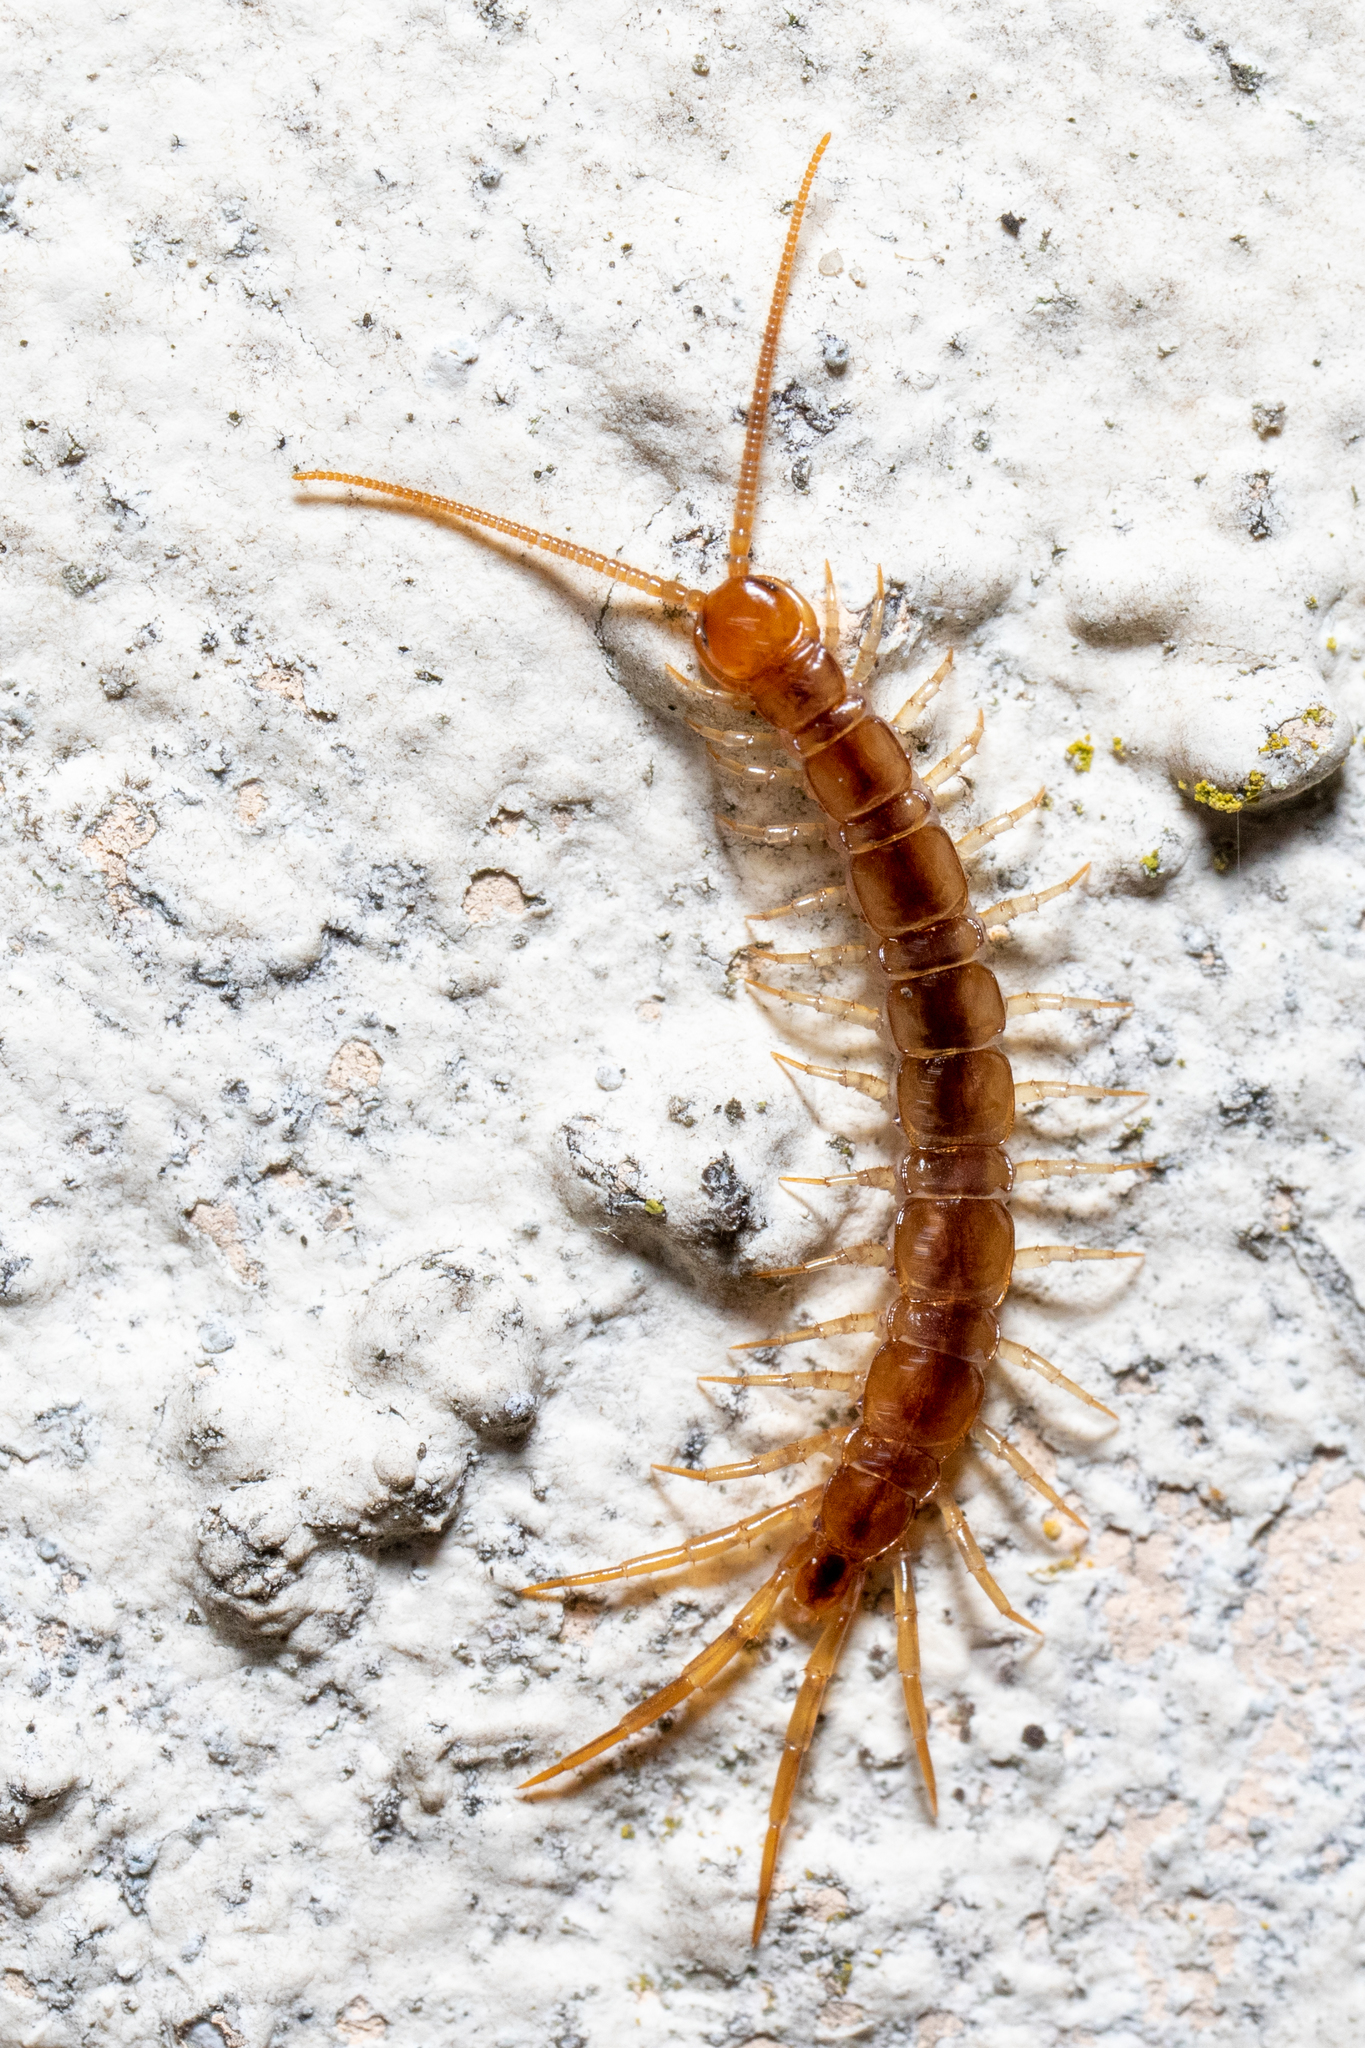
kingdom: Animalia
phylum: Arthropoda
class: Chilopoda
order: Lithobiomorpha
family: Lithobiidae
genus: Lithobius
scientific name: Lithobius melanops
